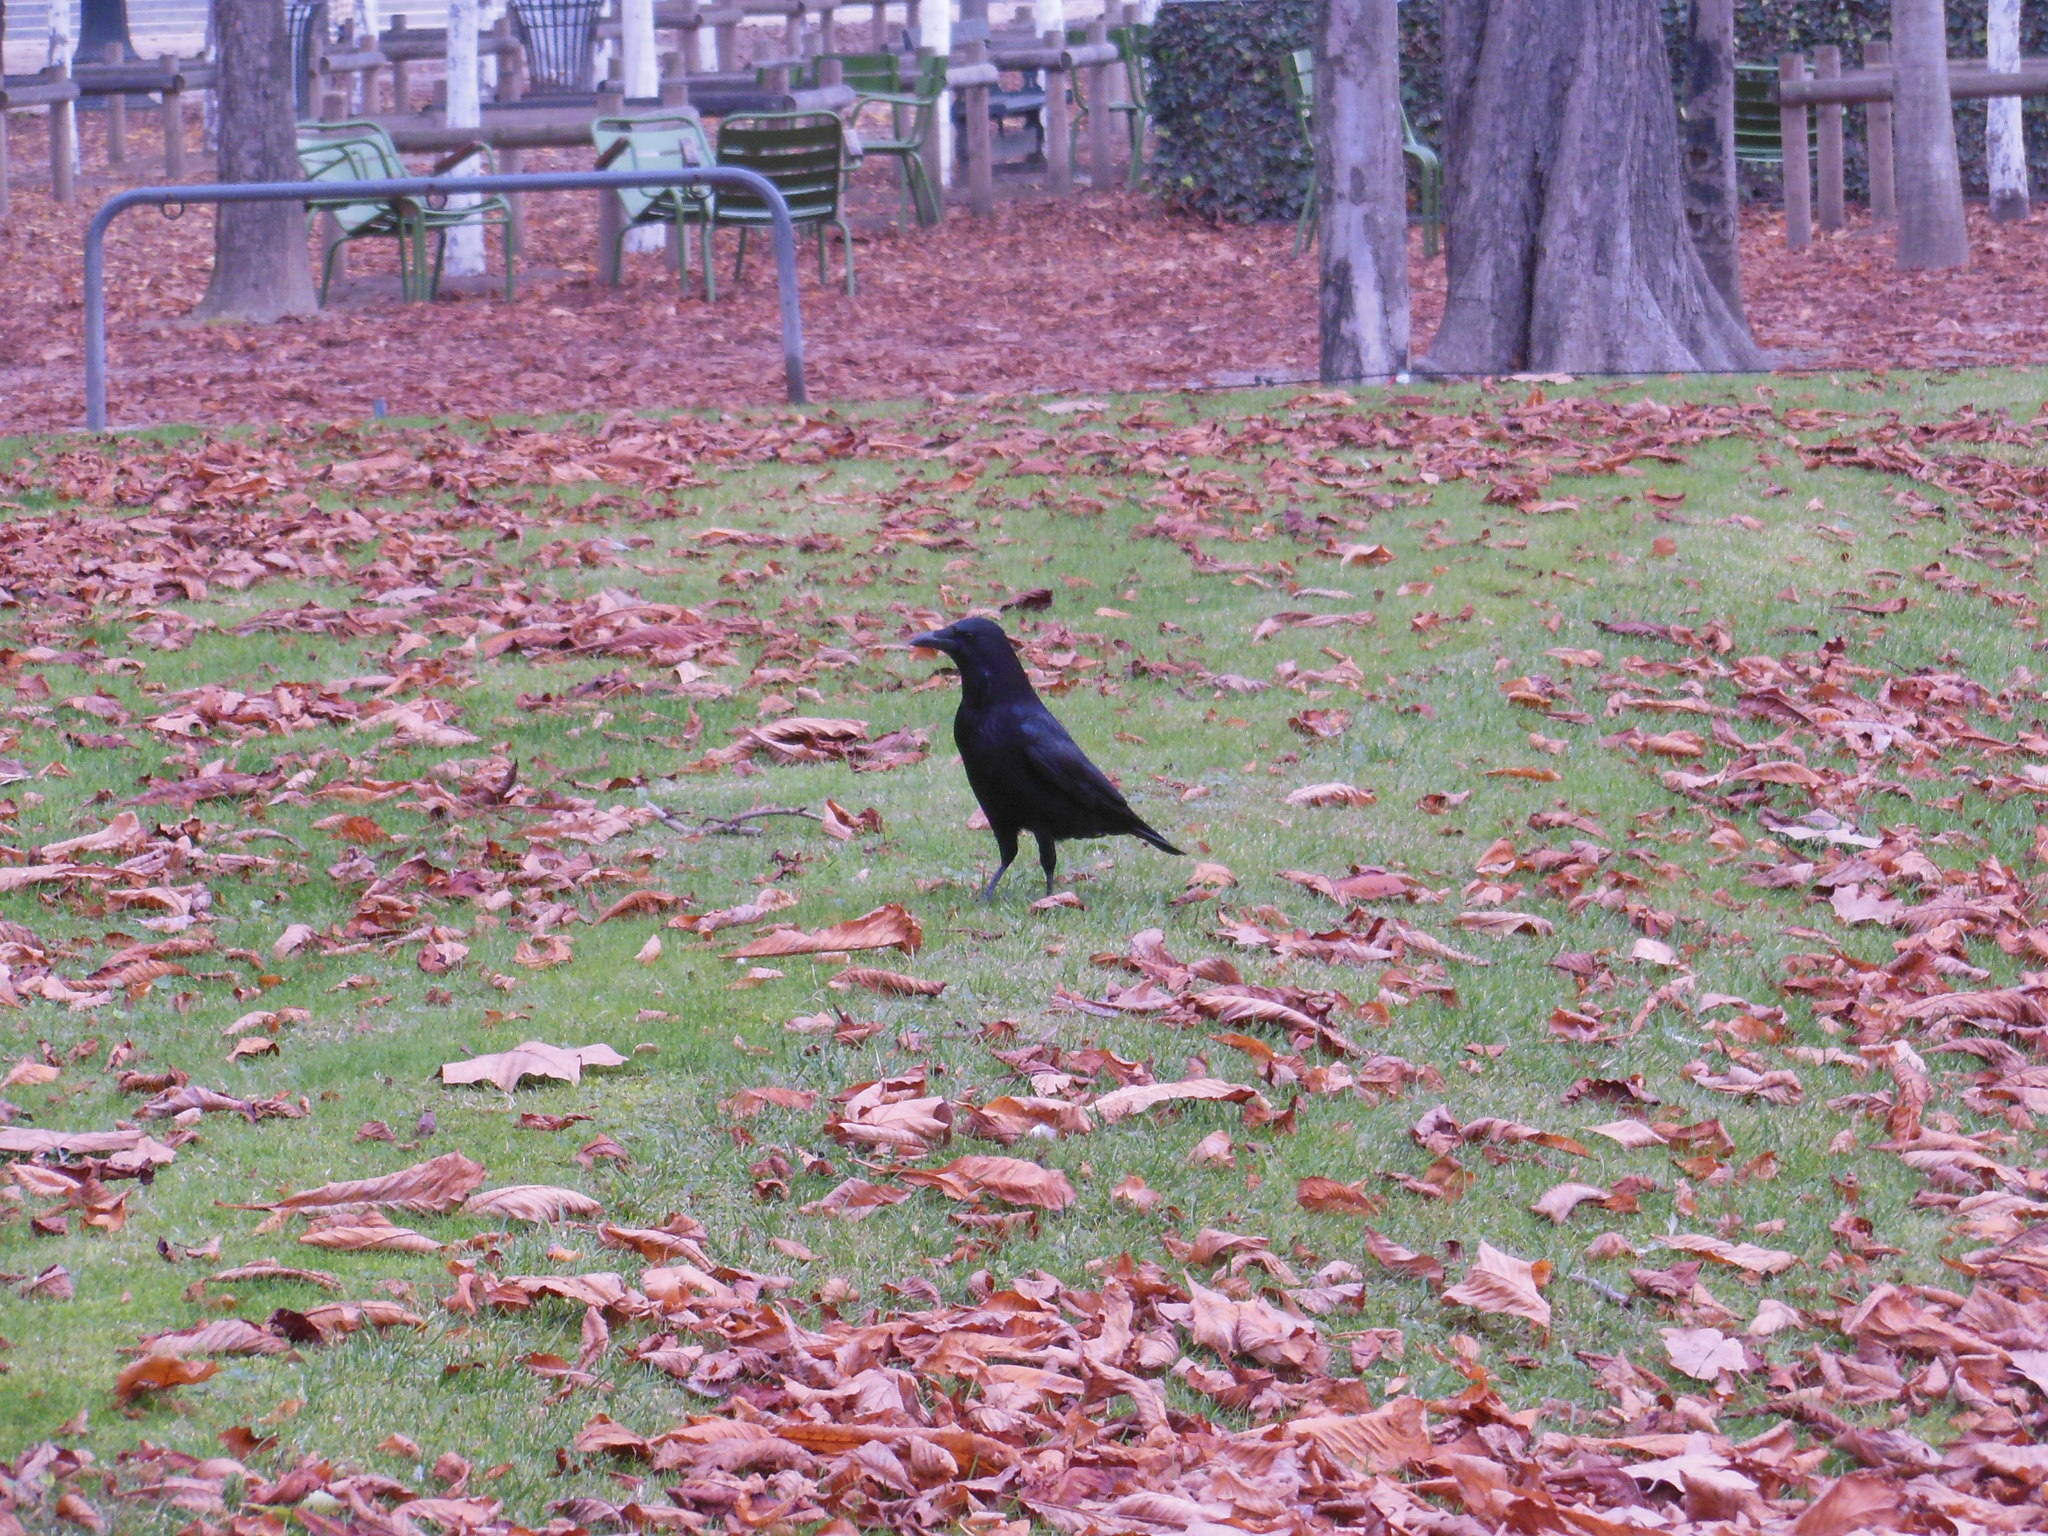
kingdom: Animalia
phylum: Chordata
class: Aves
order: Passeriformes
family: Corvidae
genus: Corvus
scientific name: Corvus corone
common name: Carrion crow
